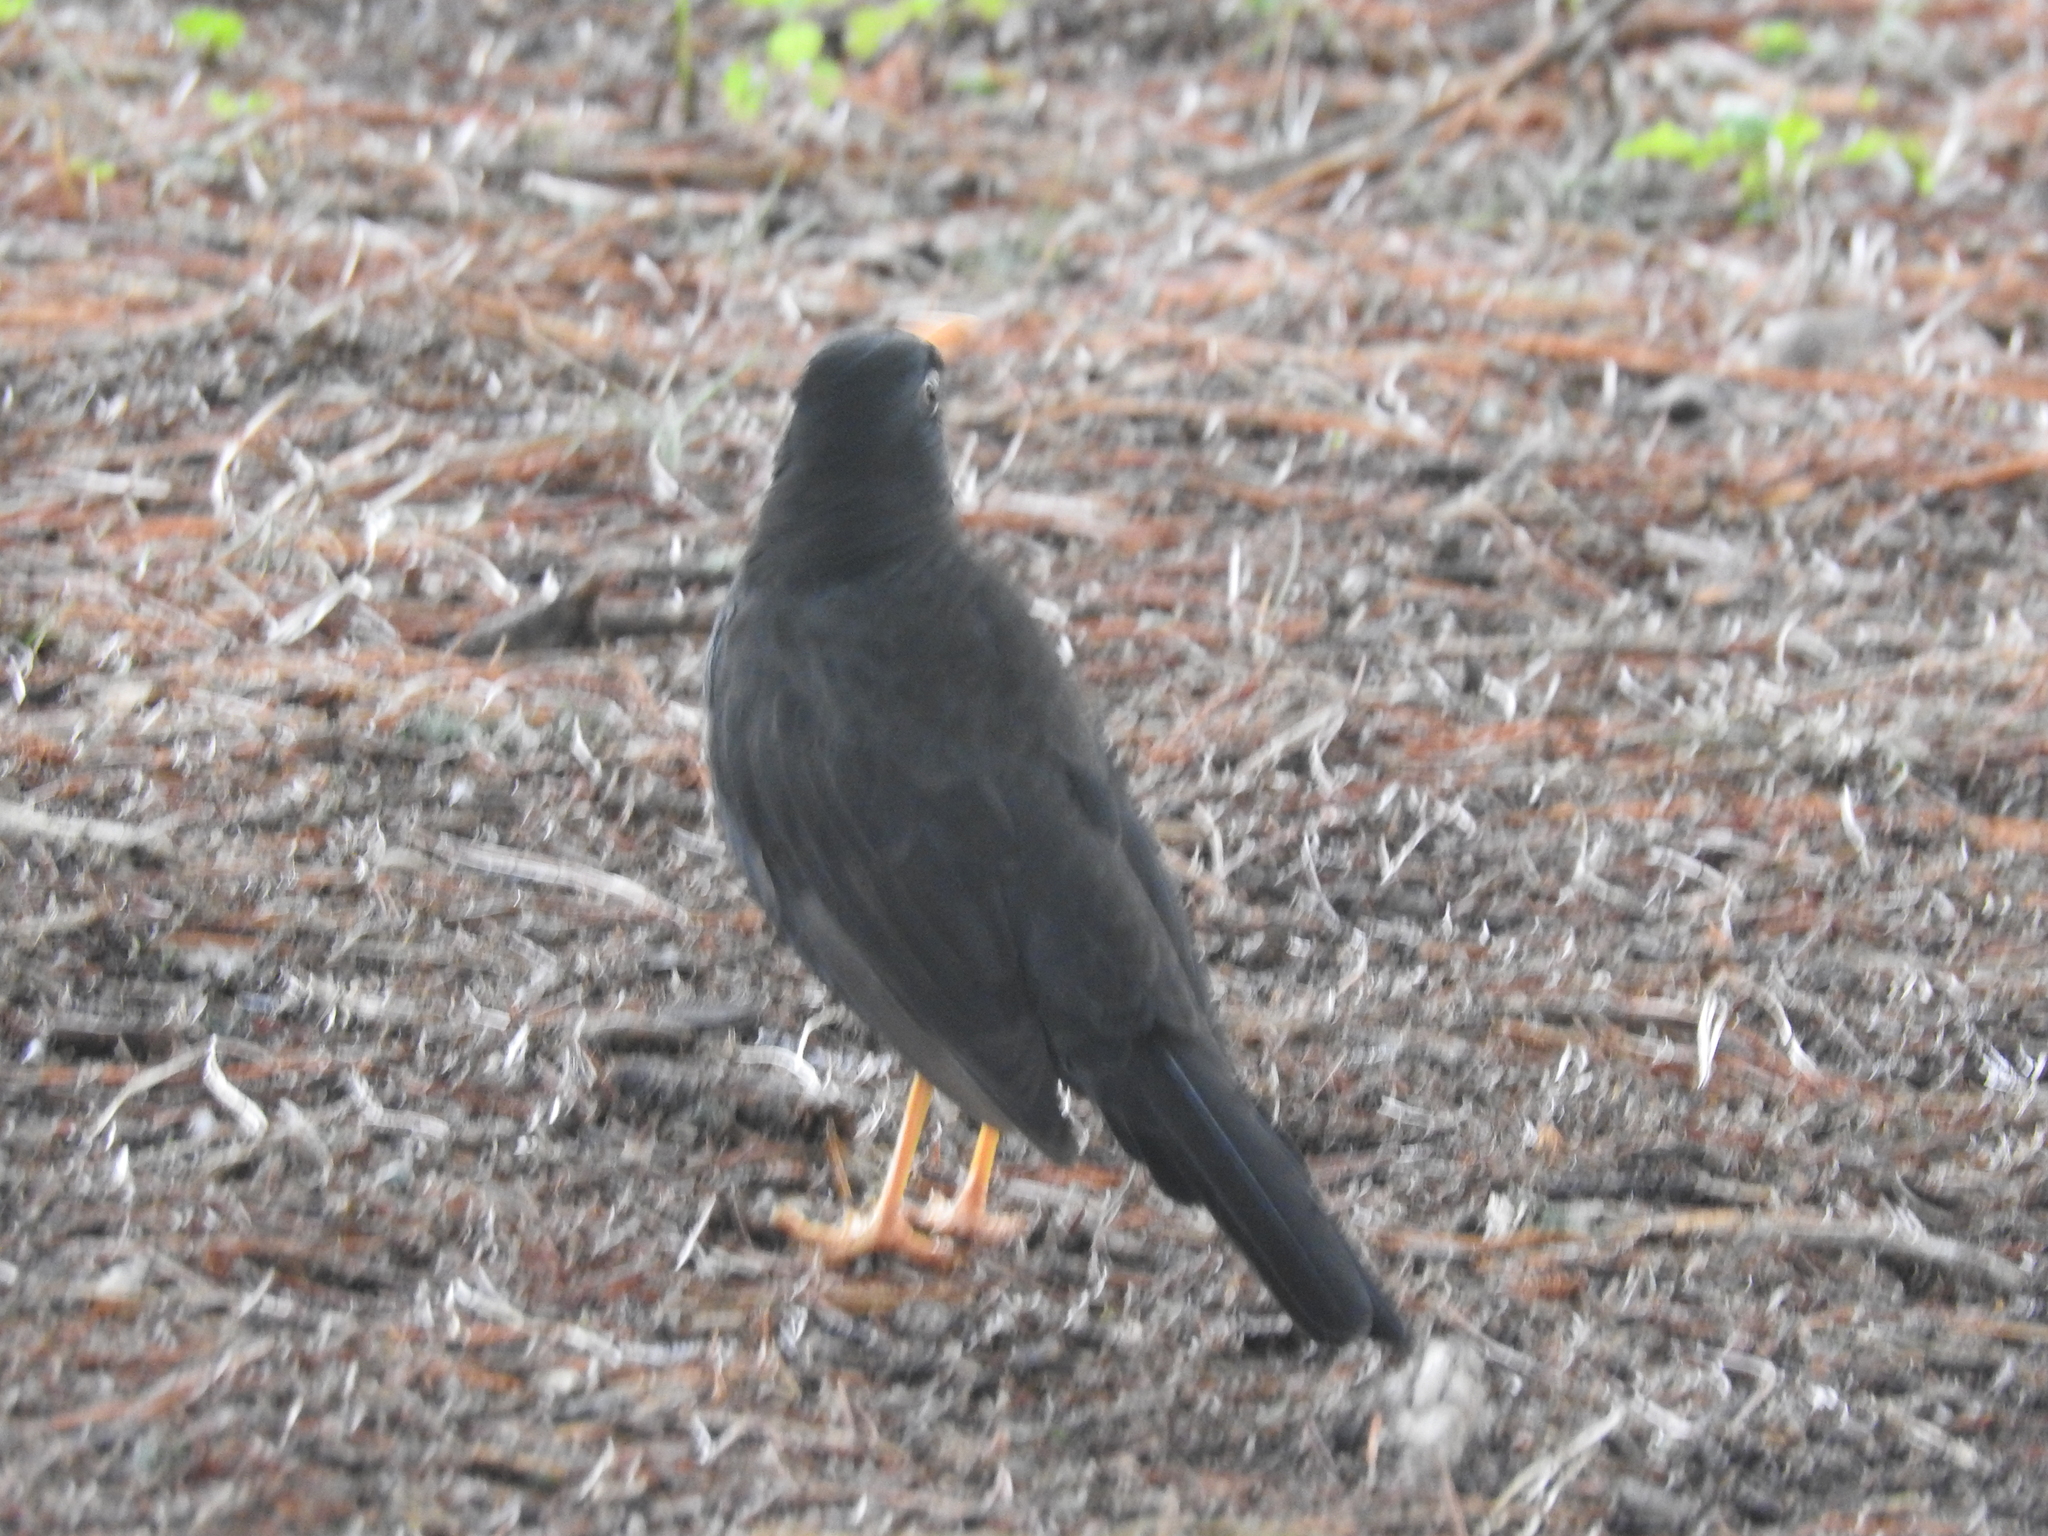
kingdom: Animalia
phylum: Chordata
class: Aves
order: Passeriformes
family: Turdidae
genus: Turdus
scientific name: Turdus chiguanco
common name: Chiguanco thrush
